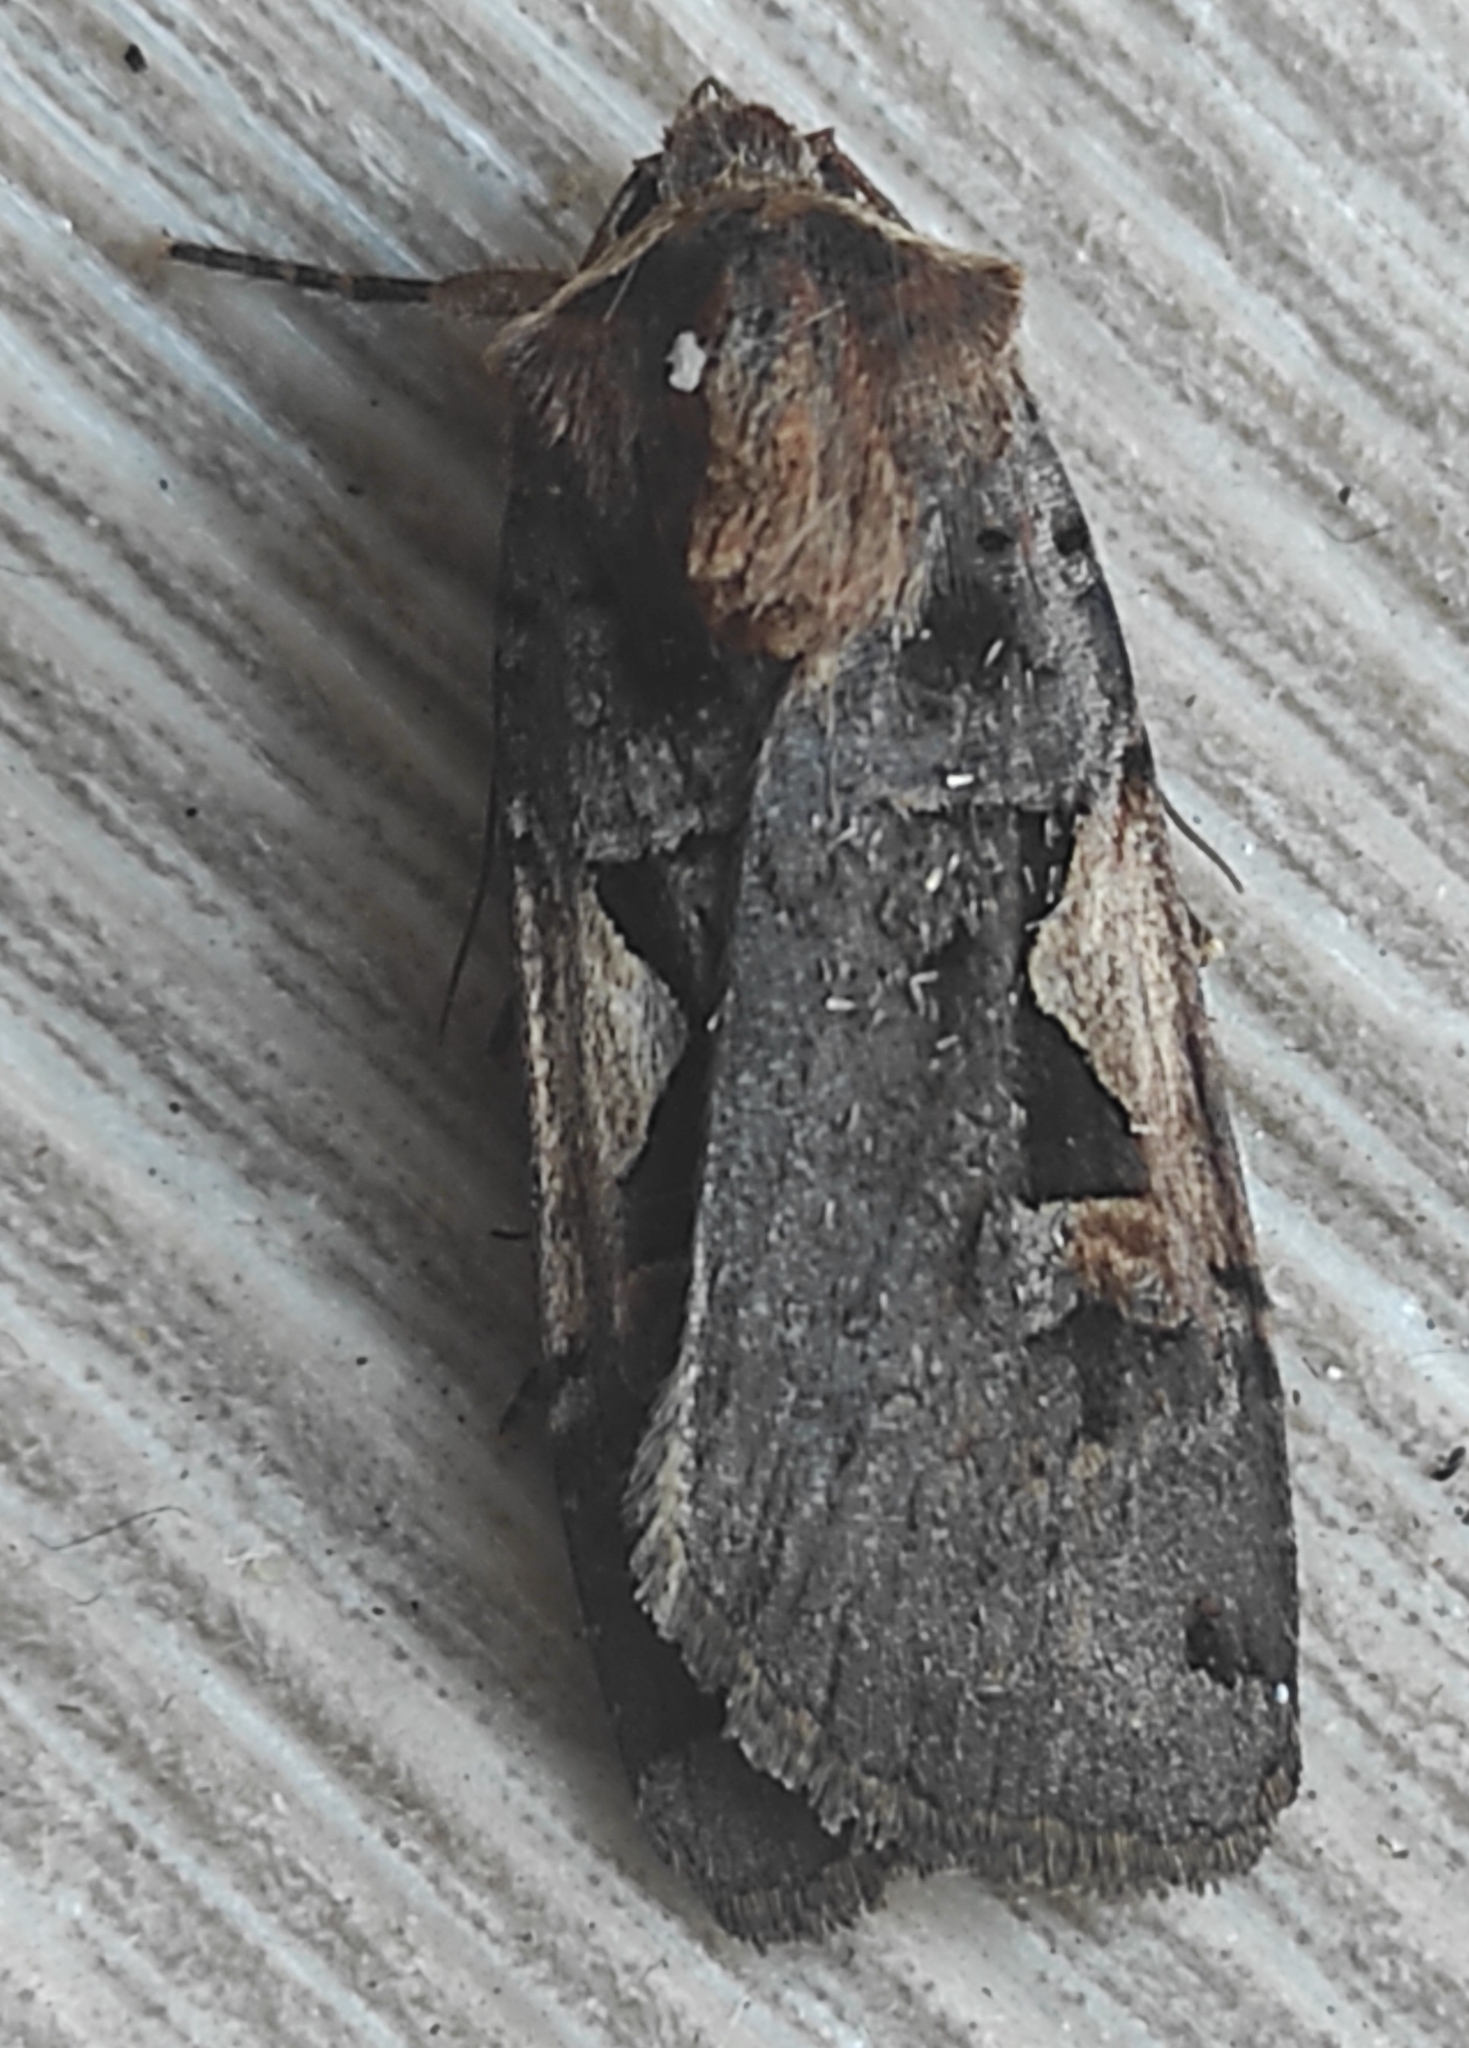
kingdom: Animalia
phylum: Arthropoda
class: Insecta
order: Lepidoptera
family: Noctuidae
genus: Xestia
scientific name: Xestia c-nigrum
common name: Setaceous hebrew character
